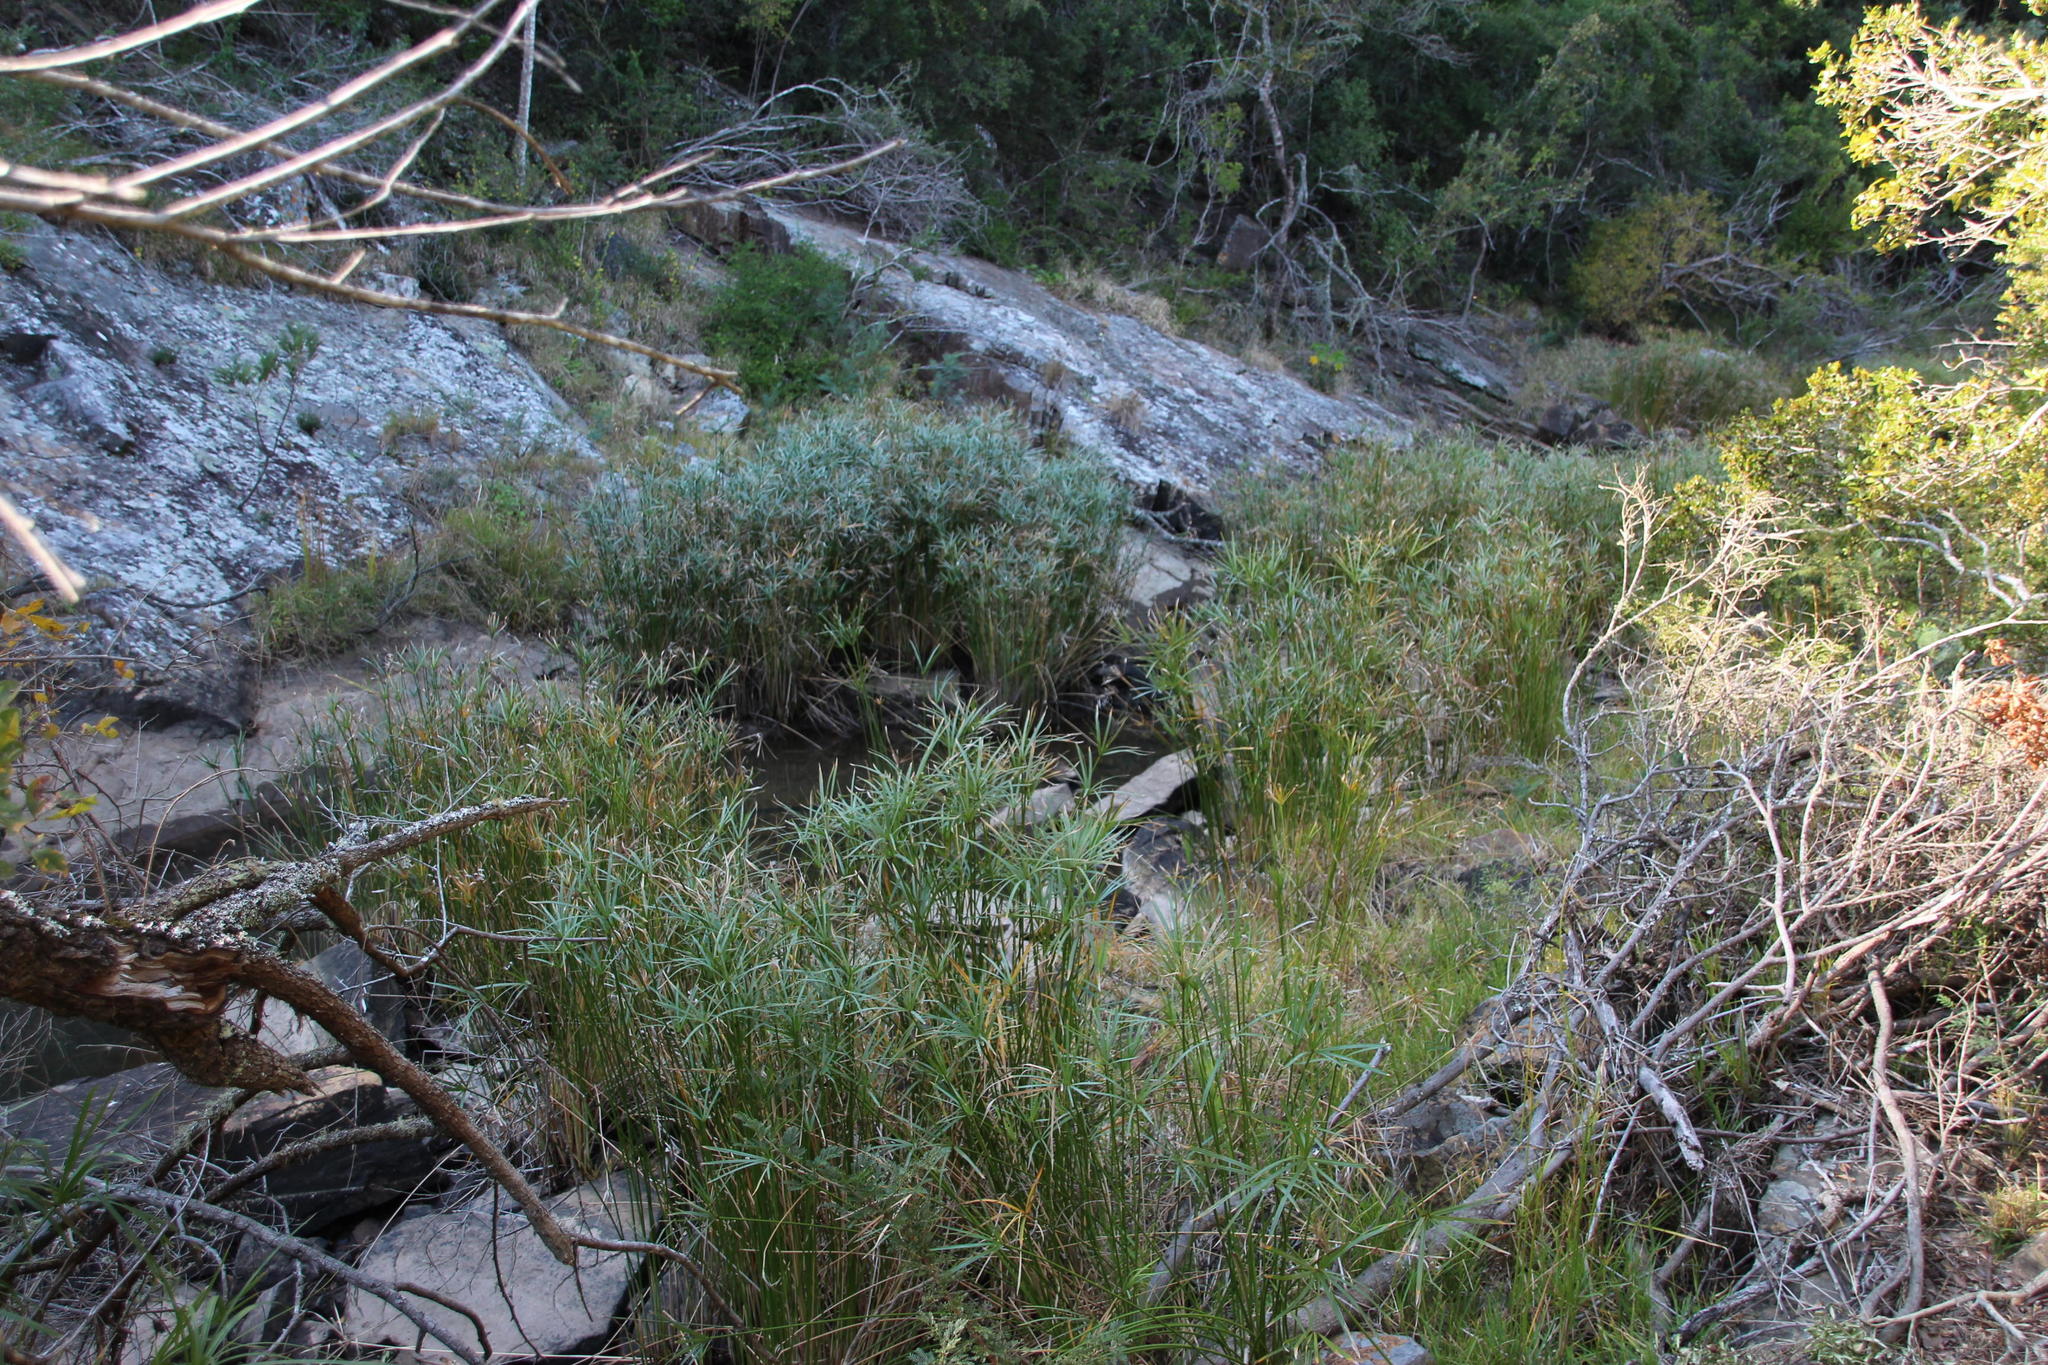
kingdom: Plantae
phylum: Tracheophyta
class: Liliopsida
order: Poales
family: Cyperaceae
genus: Cyperus
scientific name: Cyperus textilis
